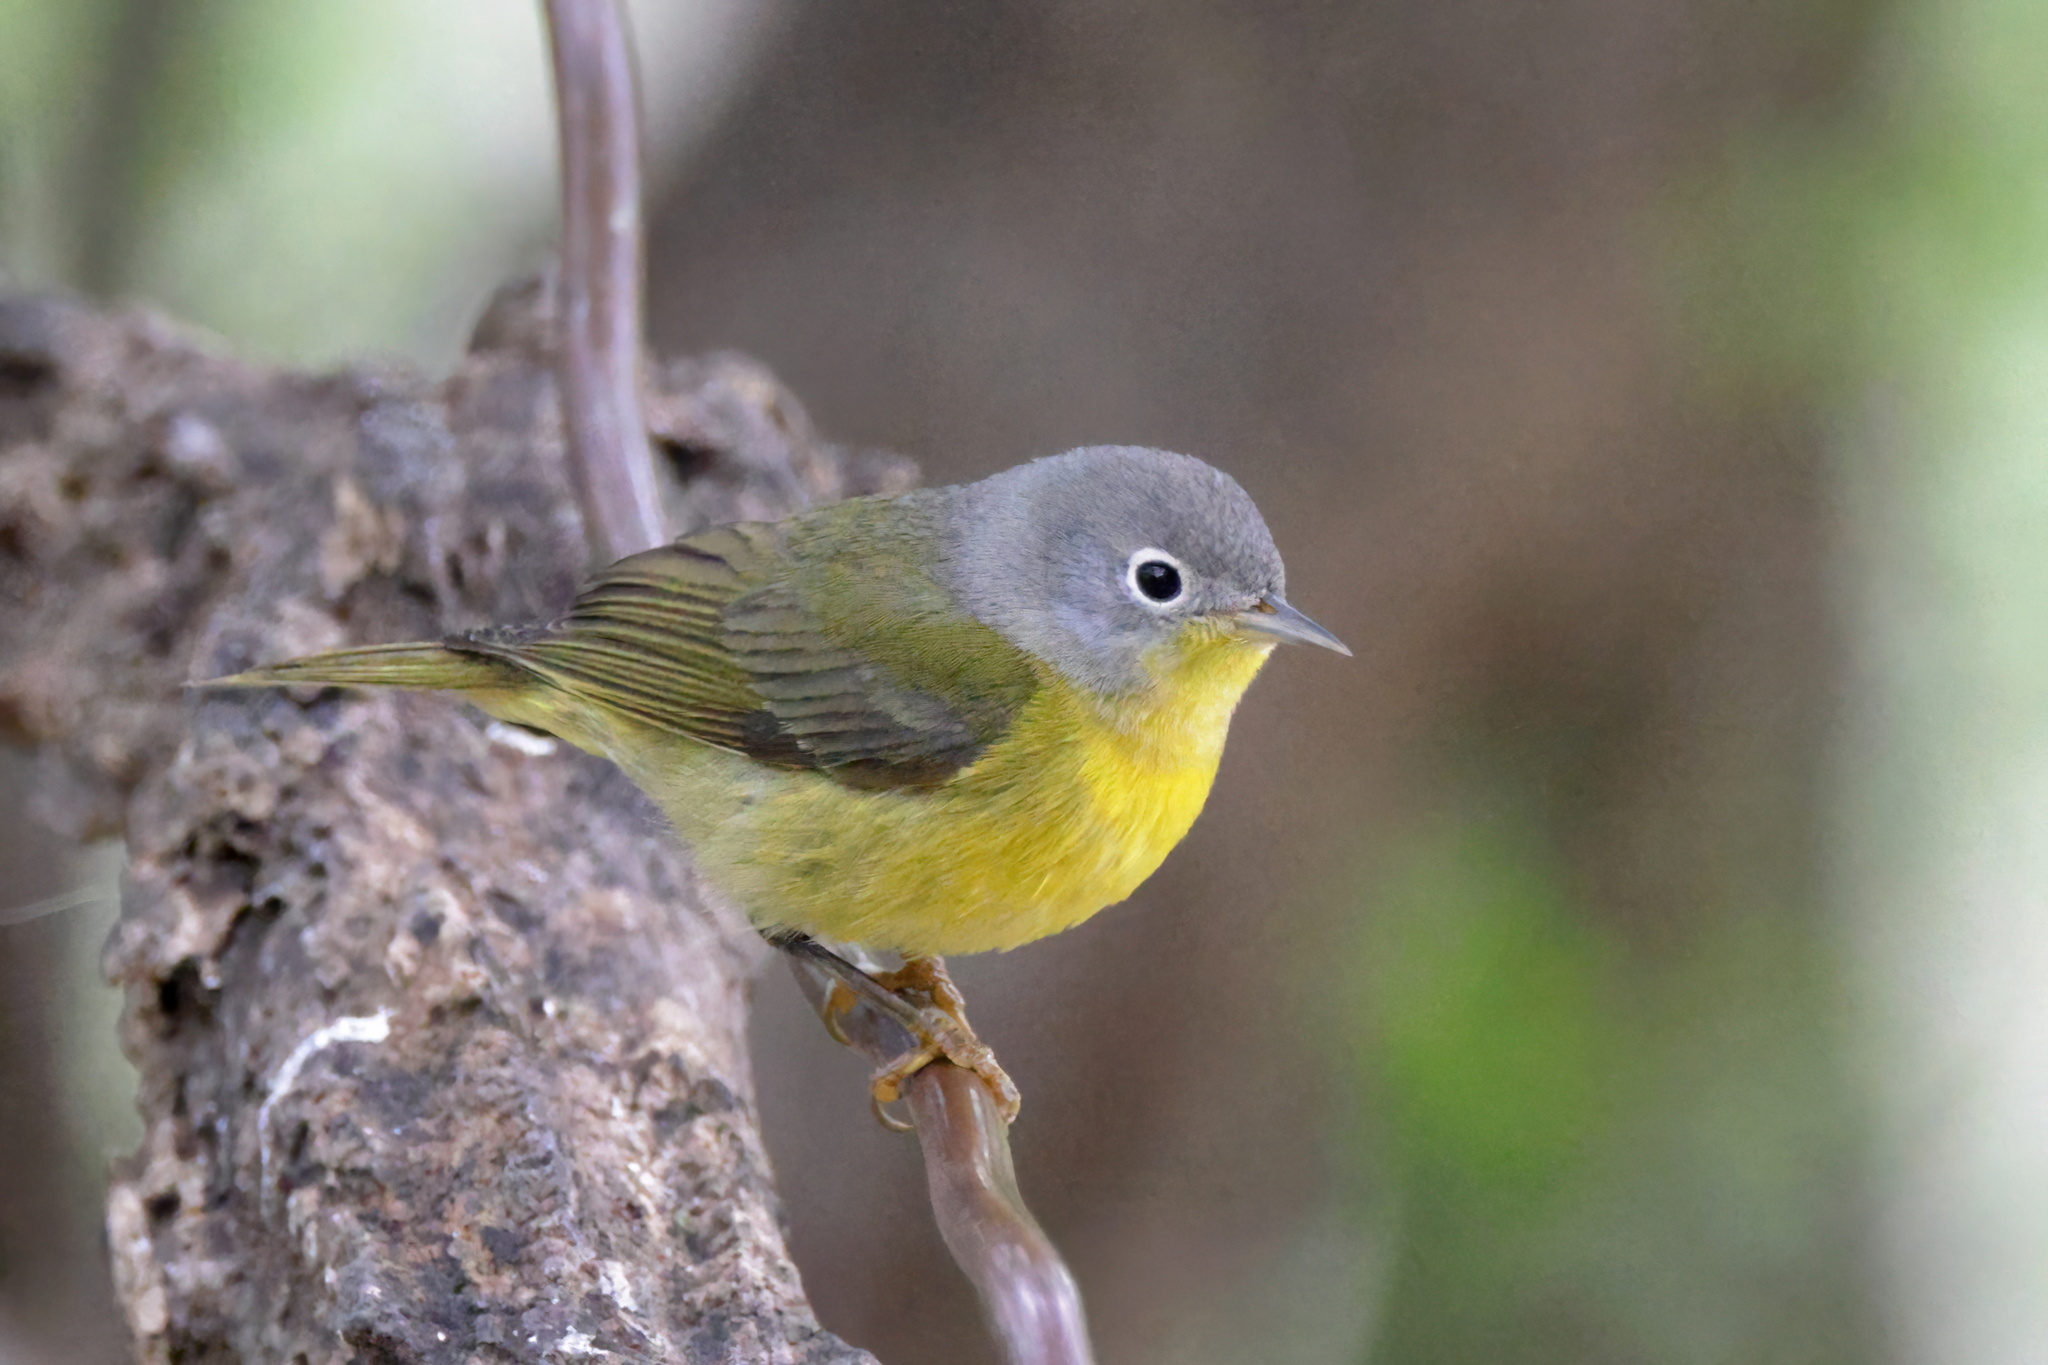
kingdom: Animalia
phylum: Chordata
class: Aves
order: Passeriformes
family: Parulidae
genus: Leiothlypis
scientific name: Leiothlypis ruficapilla
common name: Nashville warbler
